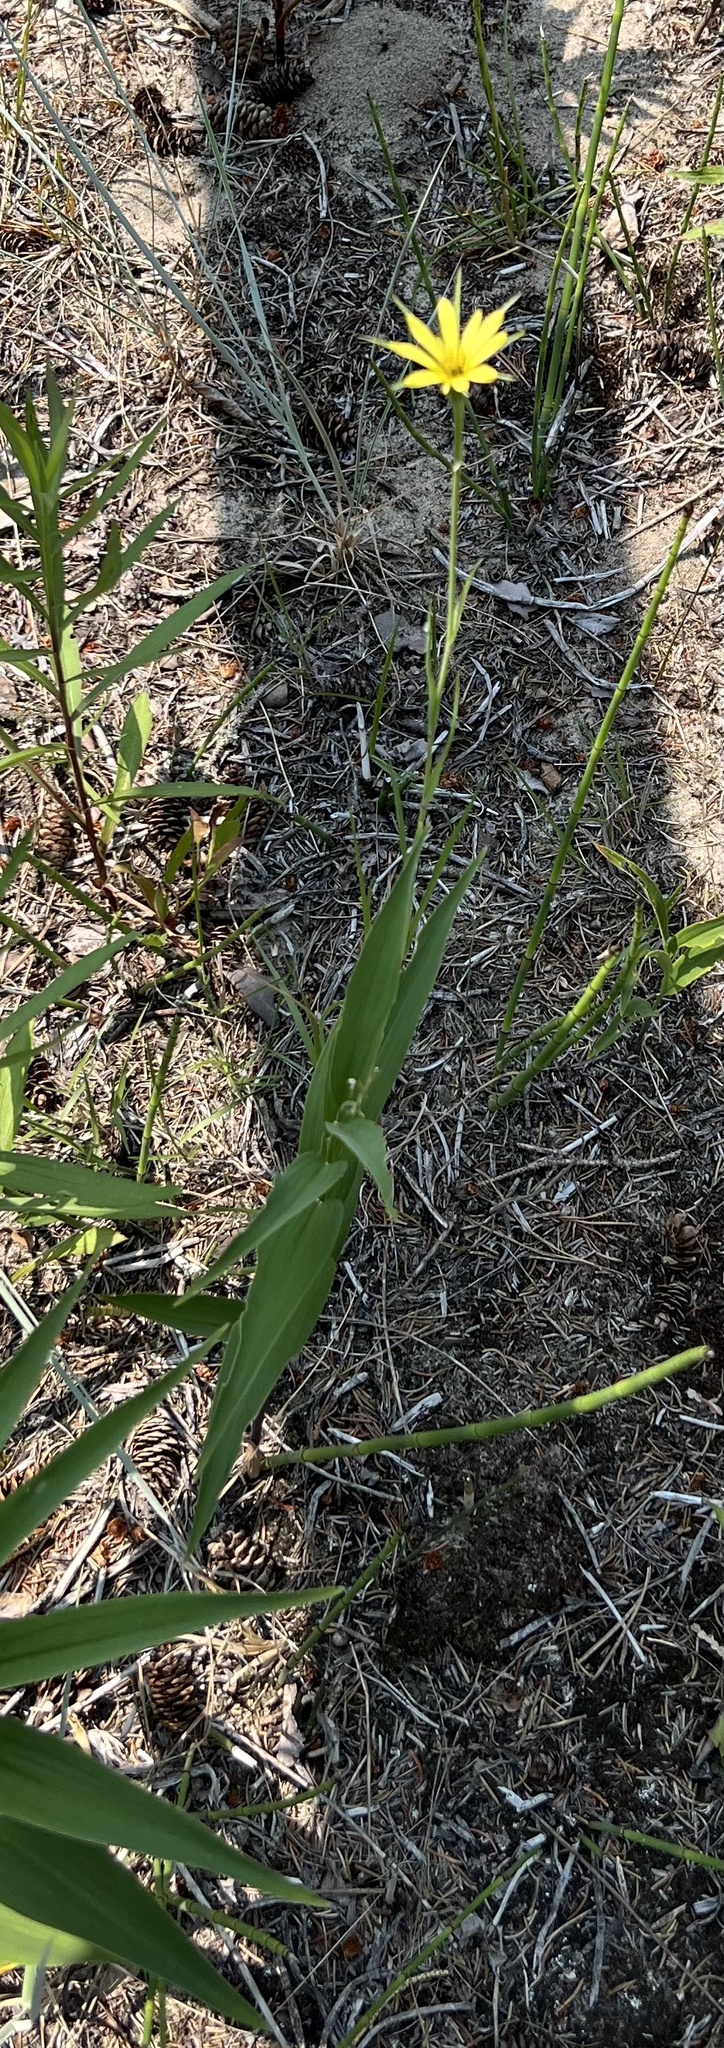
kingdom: Plantae
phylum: Tracheophyta
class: Magnoliopsida
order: Asterales
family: Asteraceae
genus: Tragopogon
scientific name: Tragopogon dubius
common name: Yellow salsify
